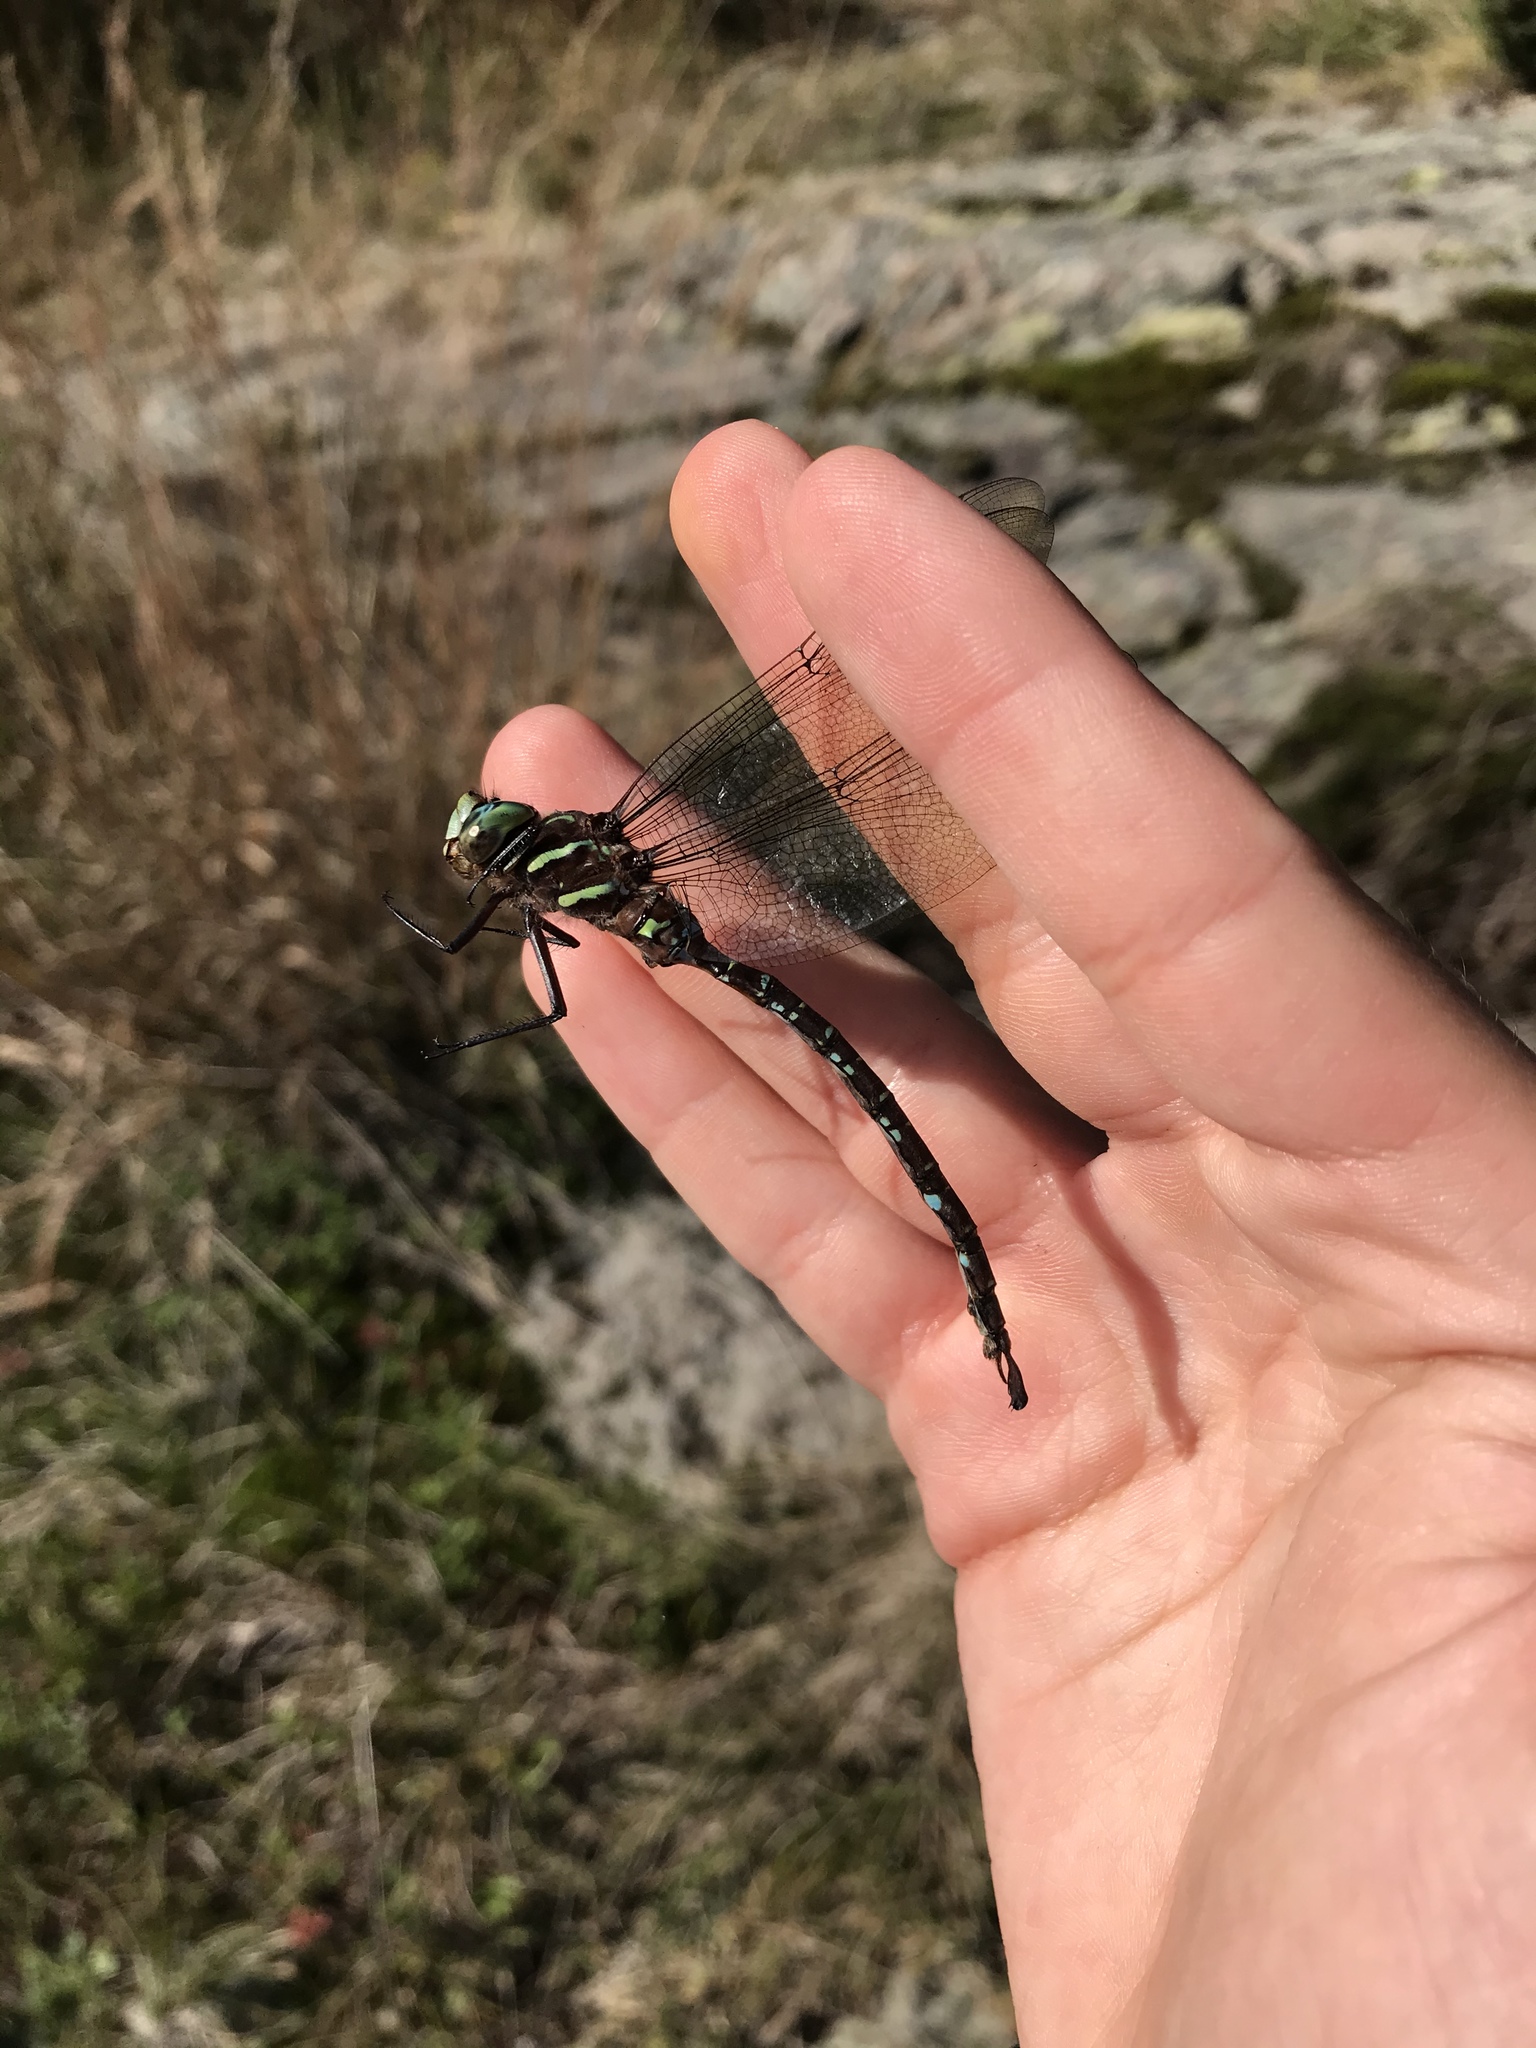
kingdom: Animalia
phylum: Arthropoda
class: Insecta
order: Odonata
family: Aeshnidae
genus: Aeshna
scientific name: Aeshna umbrosa
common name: Shadow darner
